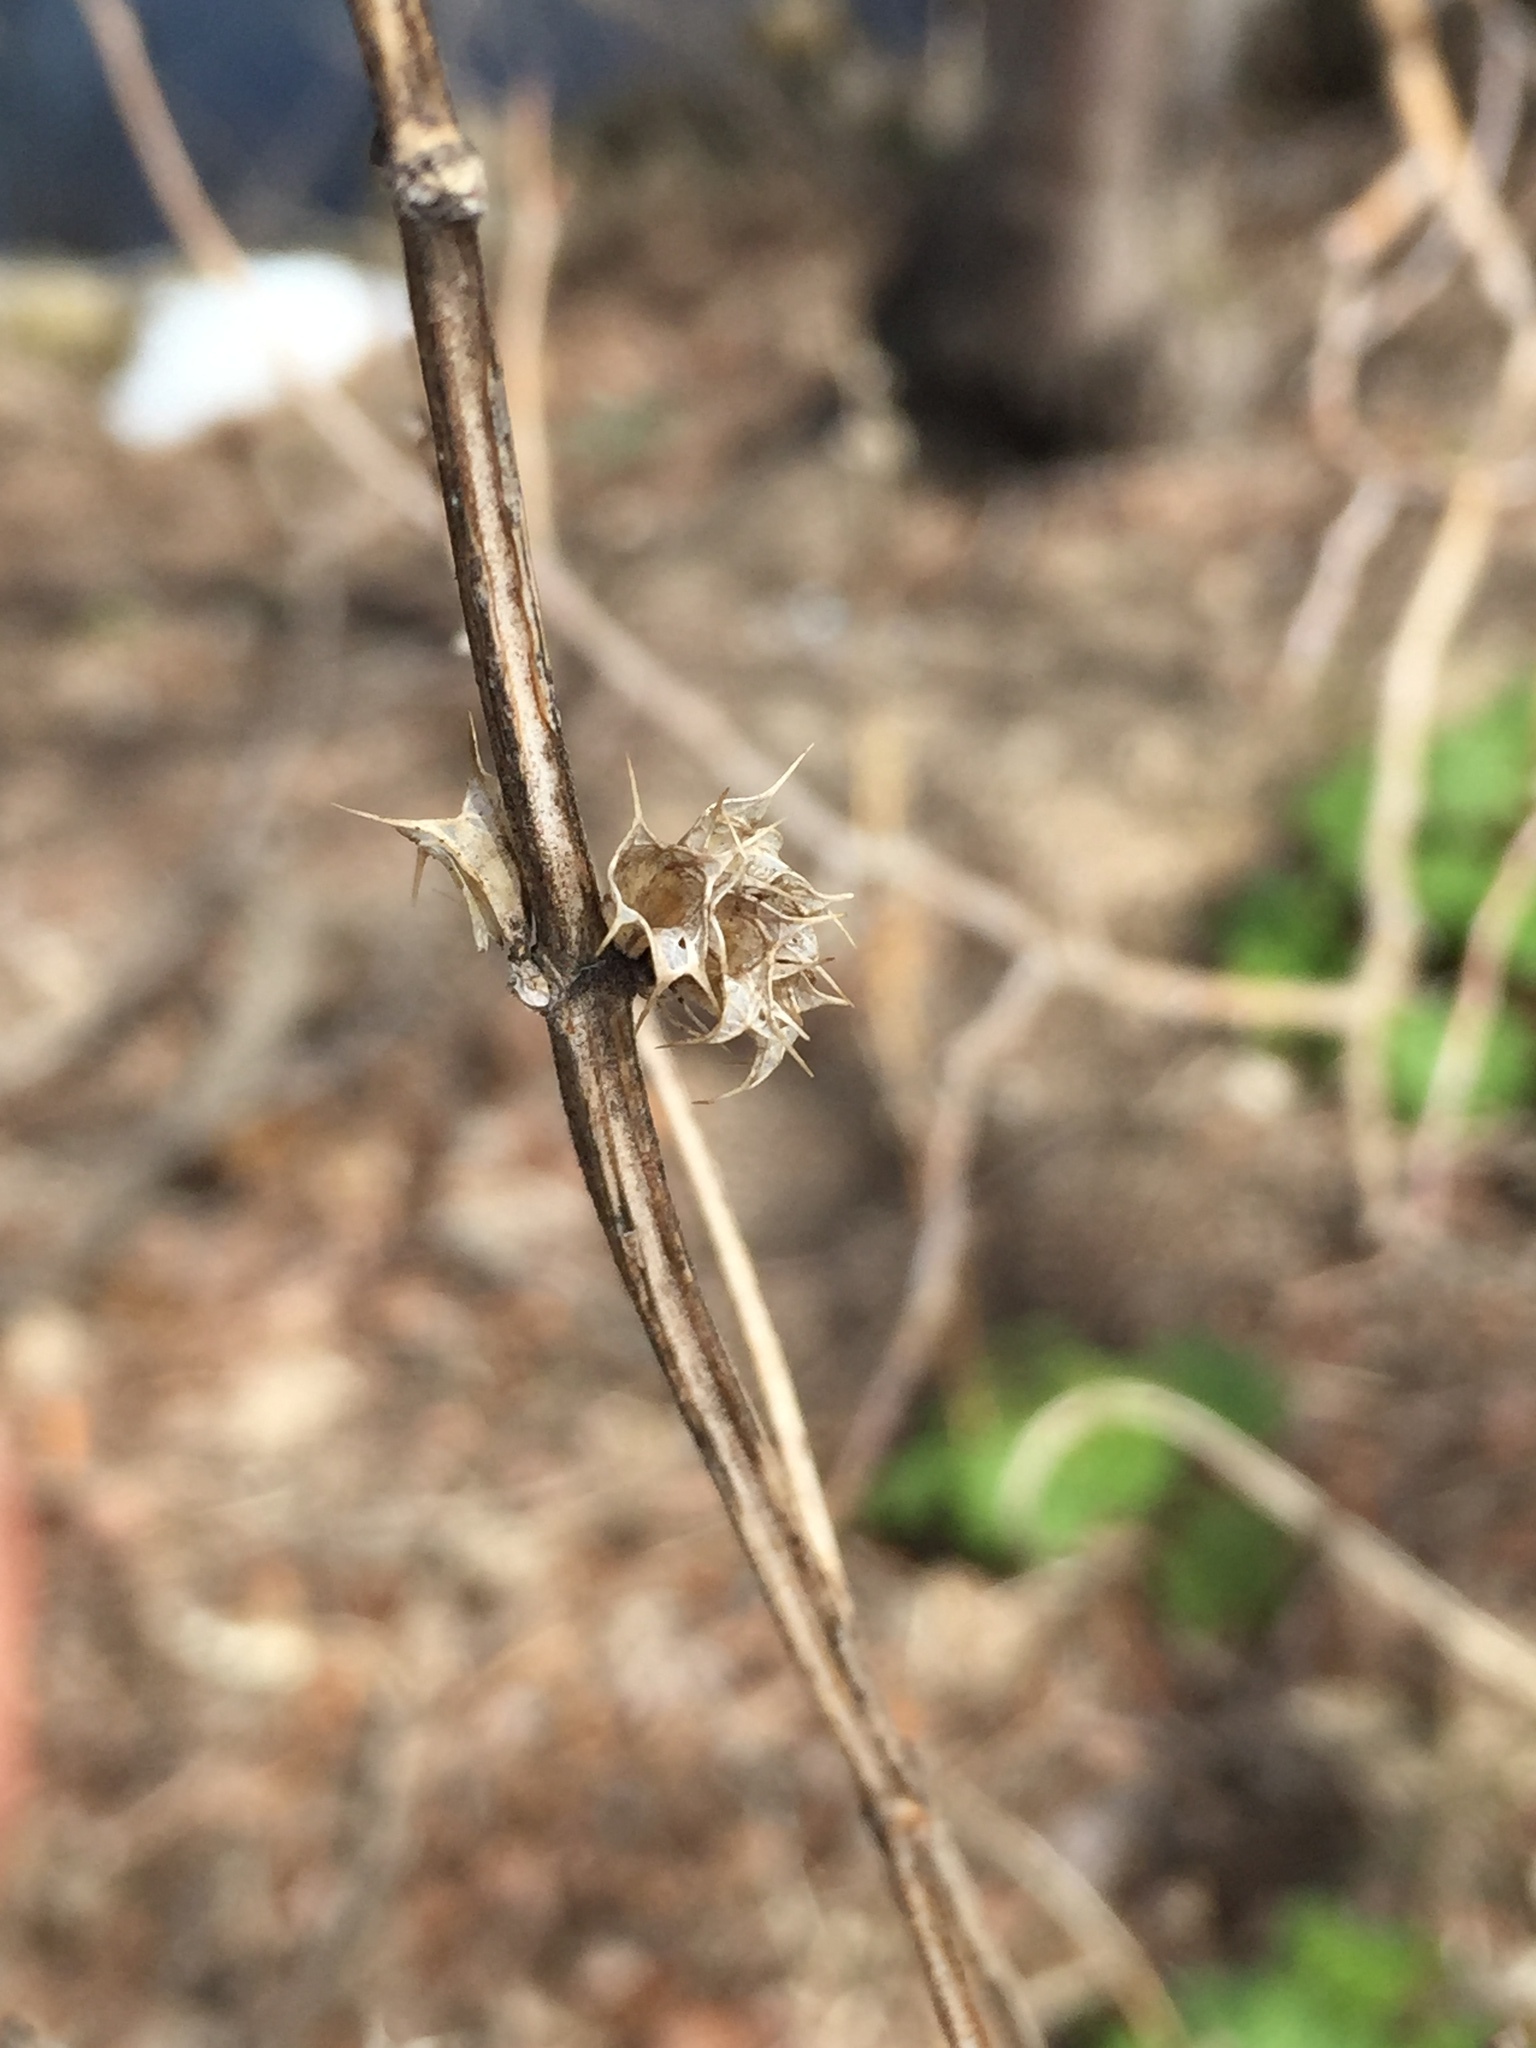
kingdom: Plantae
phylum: Tracheophyta
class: Magnoliopsida
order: Lamiales
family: Lamiaceae
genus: Leonurus
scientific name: Leonurus cardiaca
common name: Motherwort
